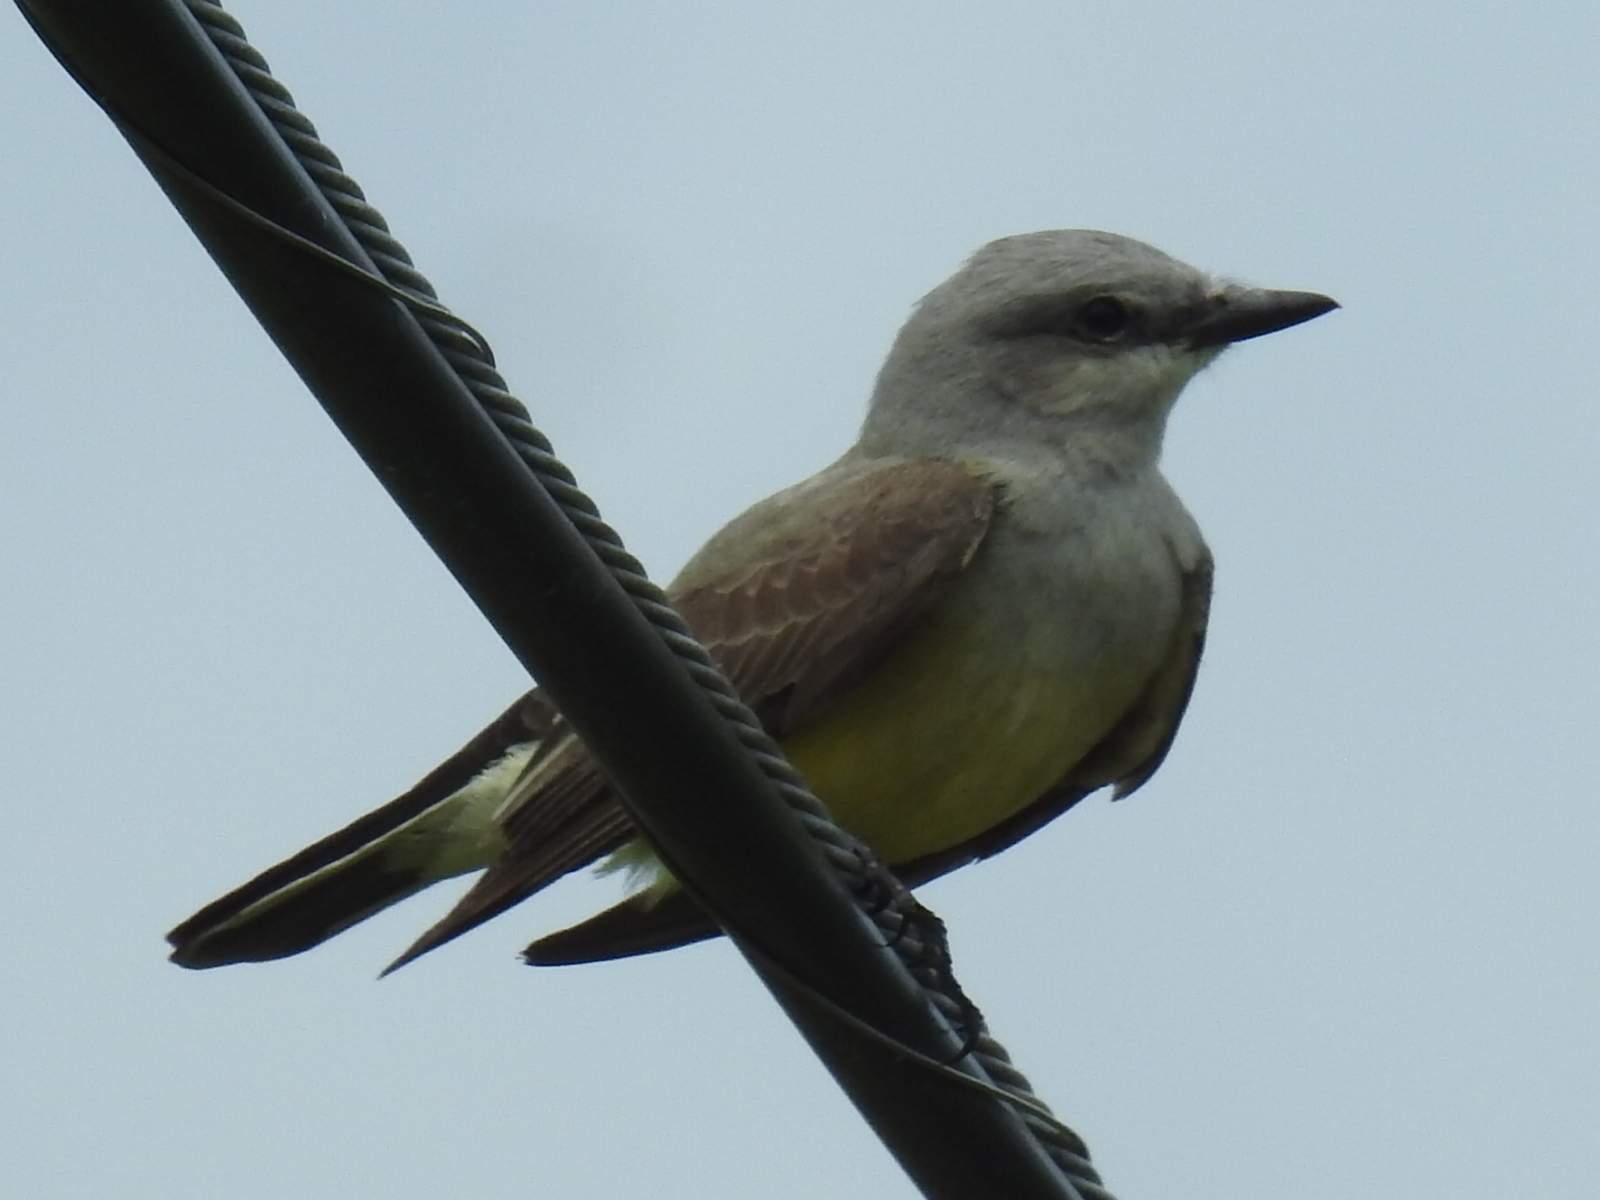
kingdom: Animalia
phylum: Chordata
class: Aves
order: Passeriformes
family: Tyrannidae
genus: Tyrannus
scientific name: Tyrannus verticalis
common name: Western kingbird
